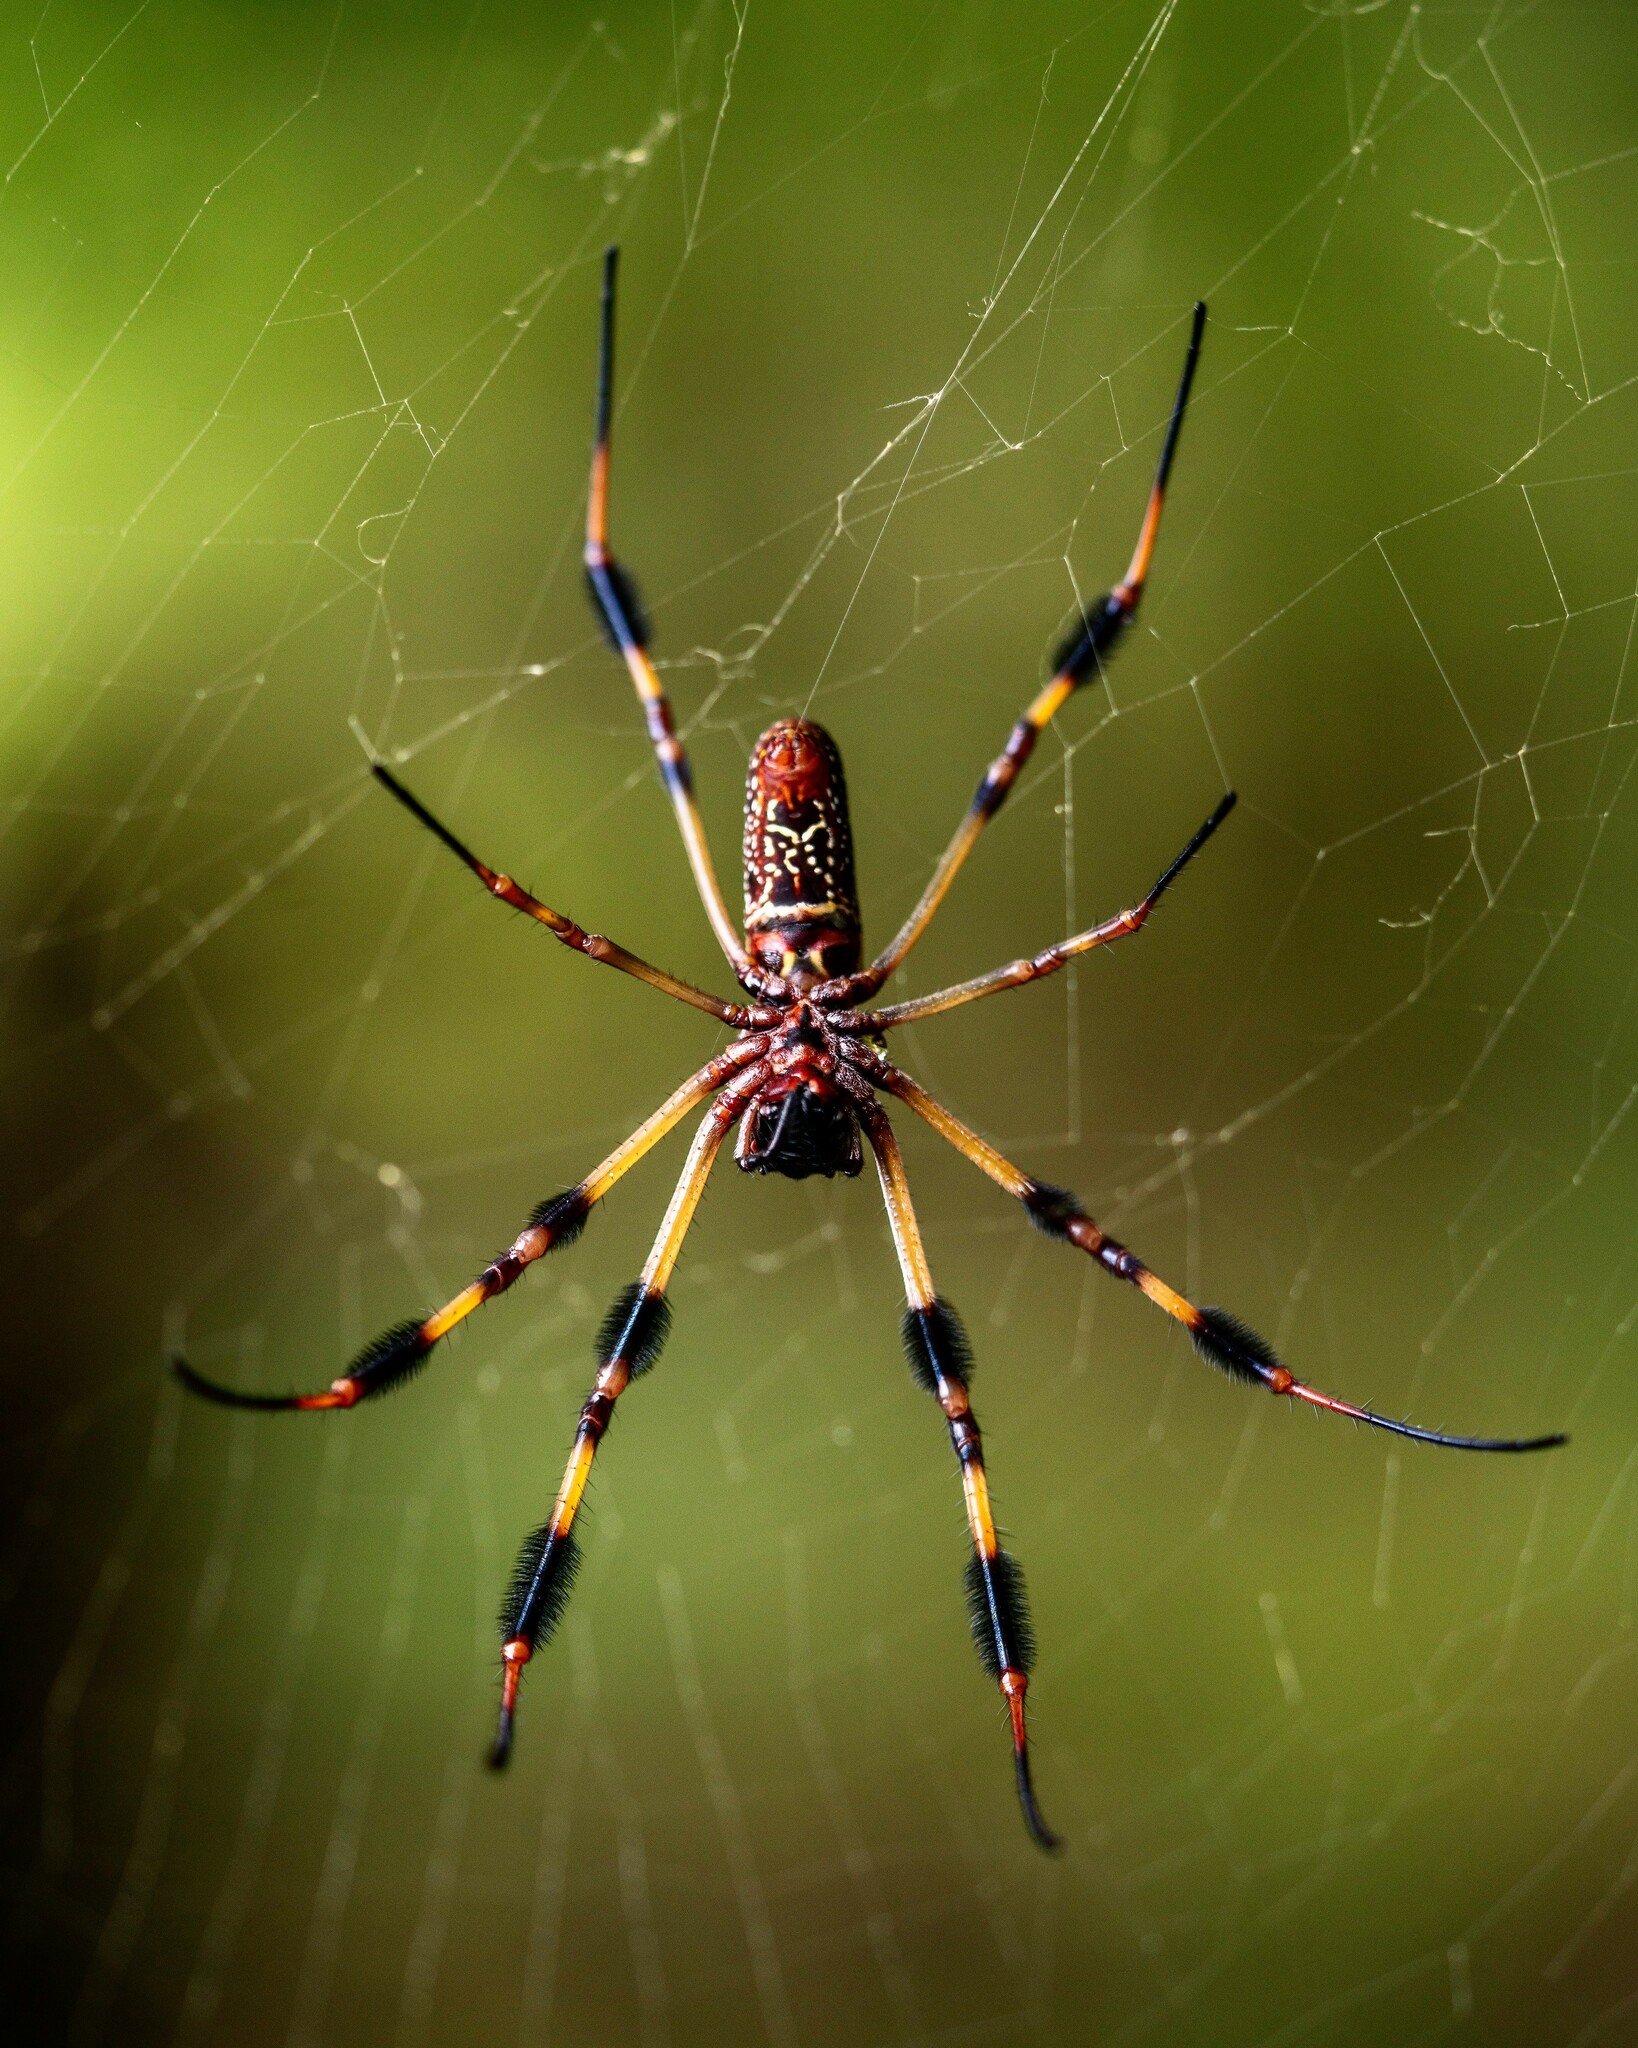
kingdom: Animalia
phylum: Arthropoda
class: Arachnida
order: Araneae
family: Araneidae
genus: Trichonephila
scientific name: Trichonephila clavipes
